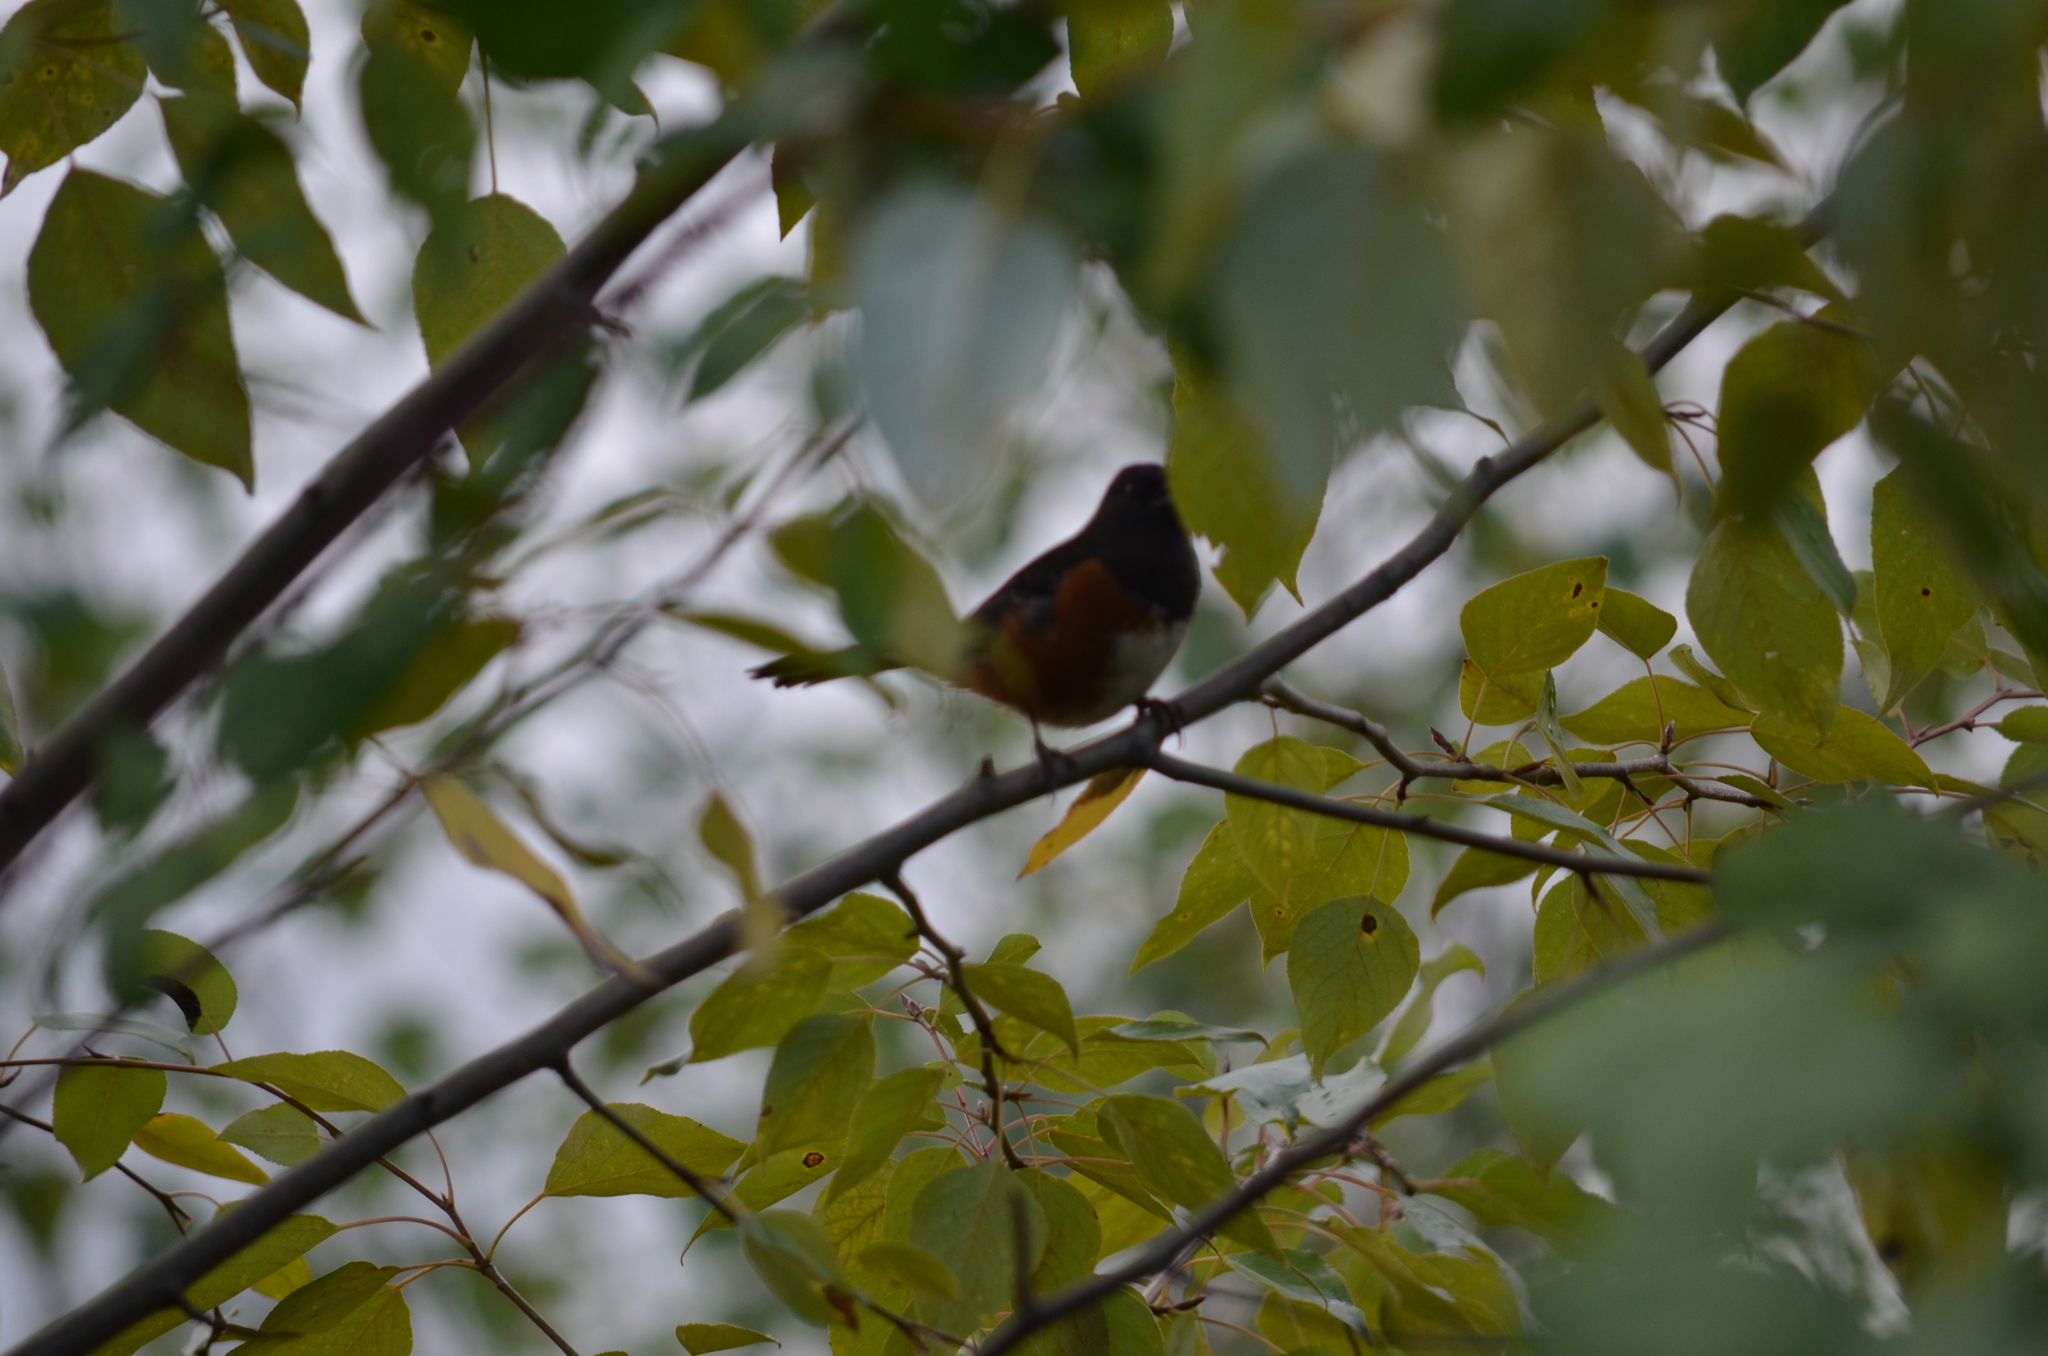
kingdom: Animalia
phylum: Chordata
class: Aves
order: Passeriformes
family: Passerellidae
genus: Pipilo
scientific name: Pipilo maculatus
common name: Spotted towhee
